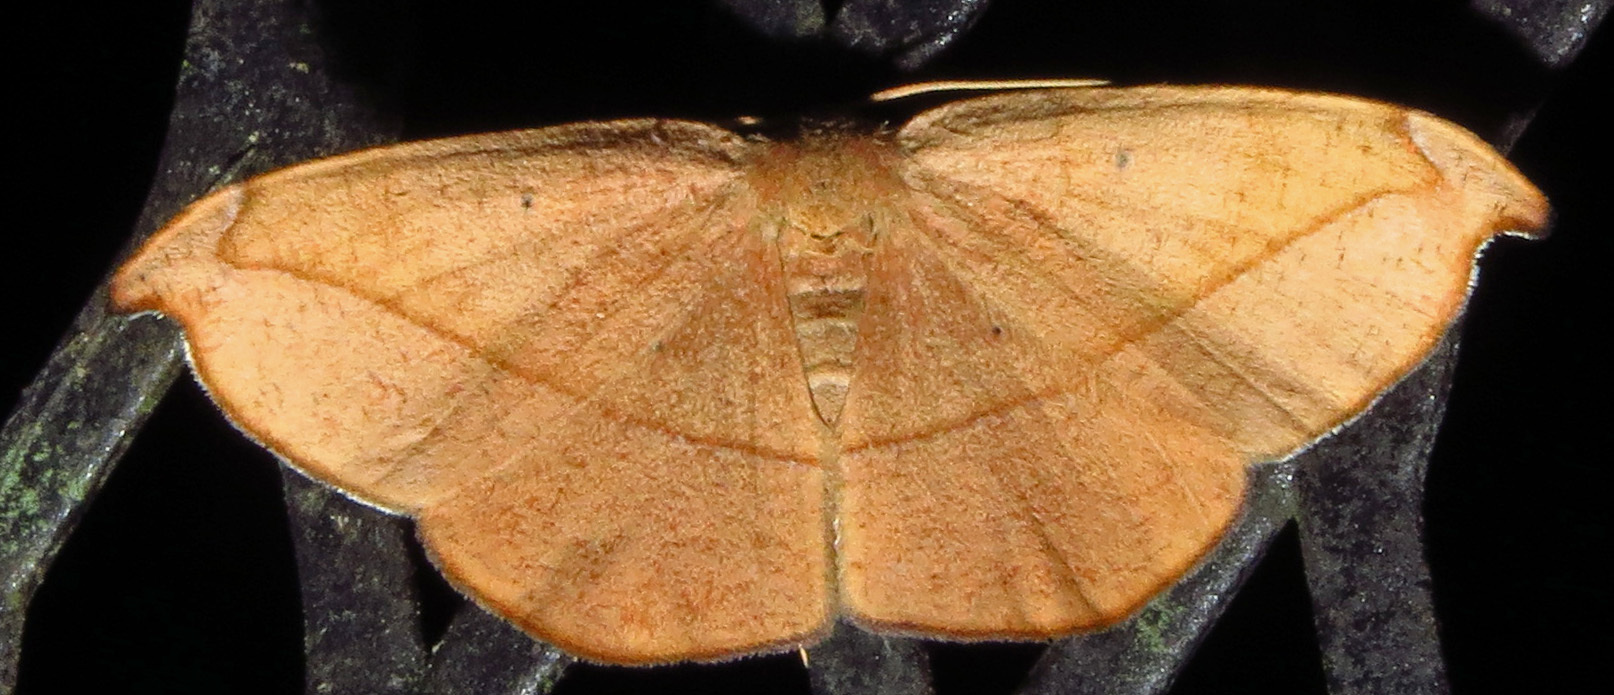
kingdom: Animalia
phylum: Arthropoda
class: Insecta
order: Lepidoptera
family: Geometridae
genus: Patalene
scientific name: Patalene olyzonaria
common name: Juniper geometer moth
